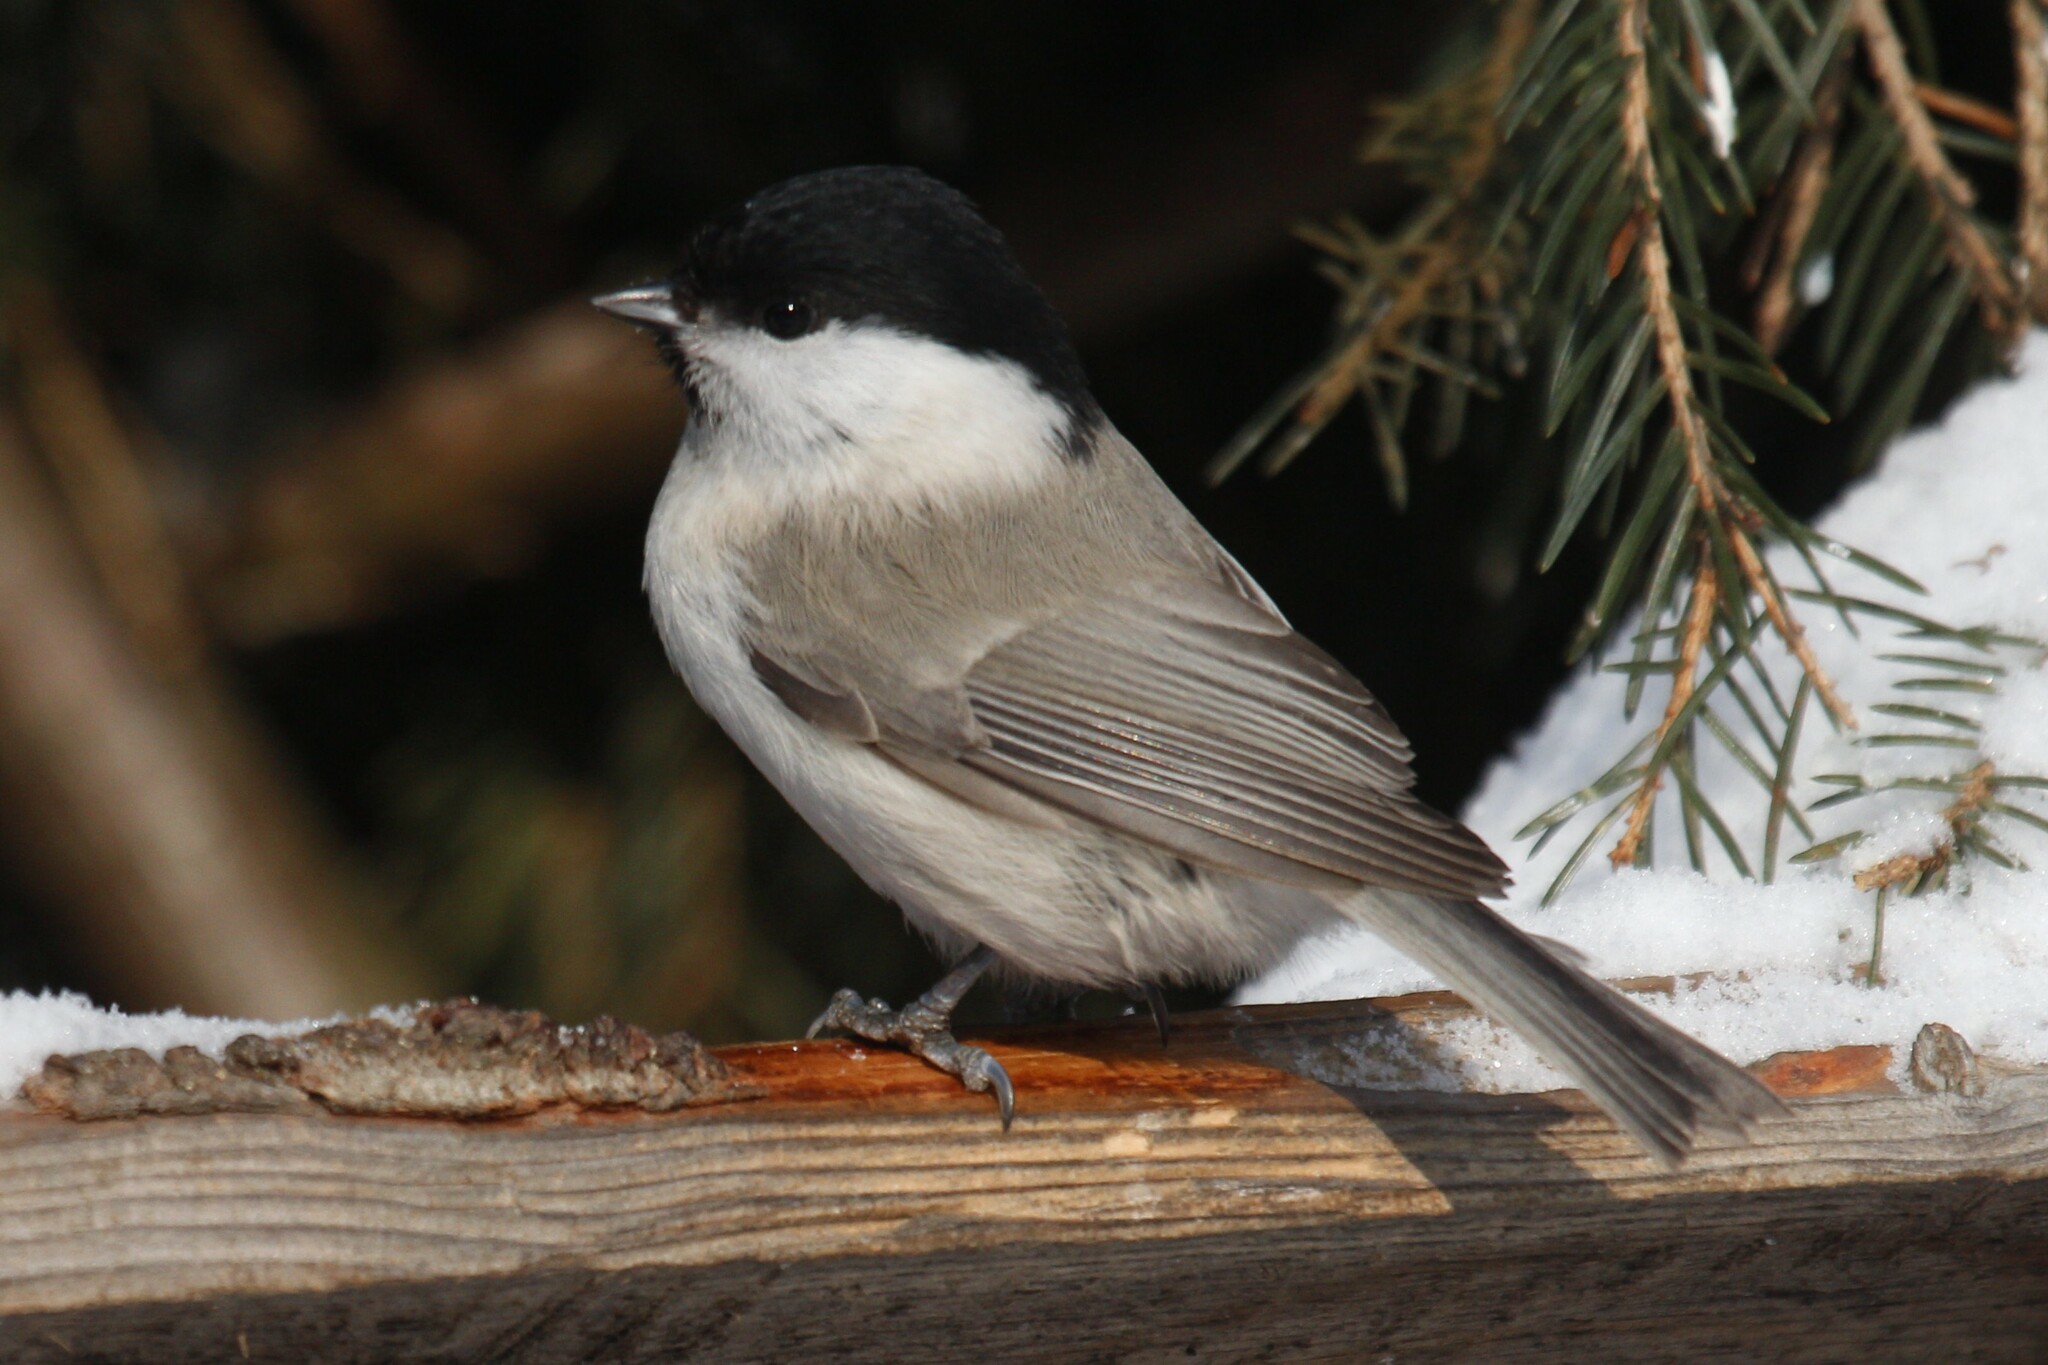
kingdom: Animalia
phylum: Chordata
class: Aves
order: Passeriformes
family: Paridae
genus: Poecile
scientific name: Poecile palustris
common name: Marsh tit
